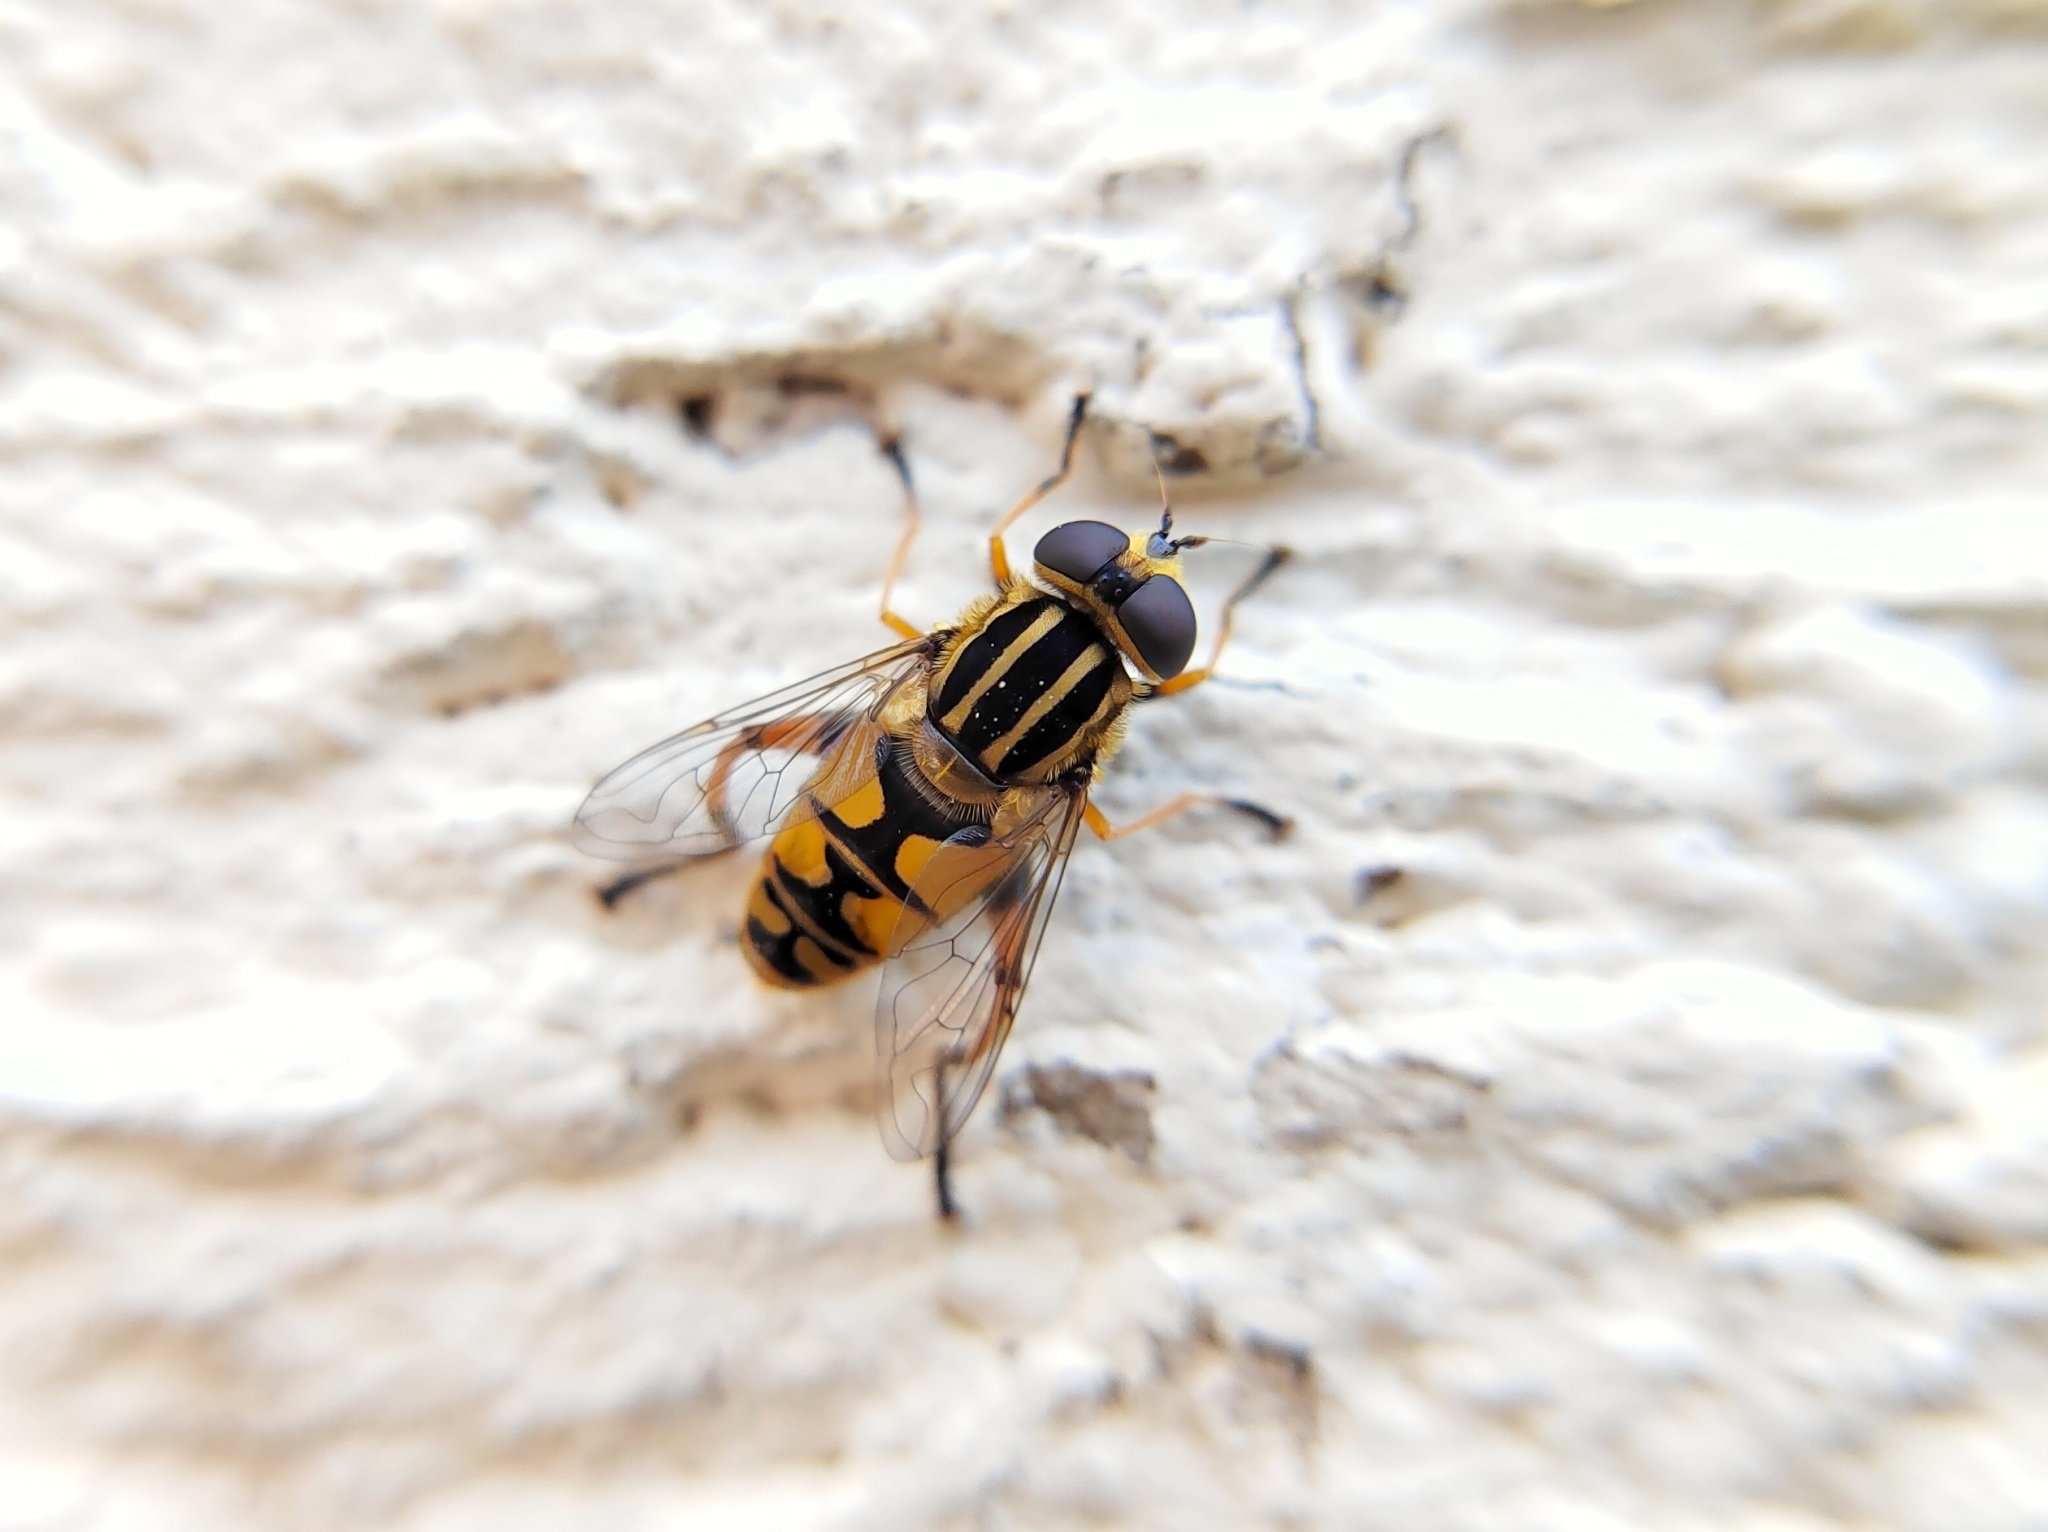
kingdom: Animalia
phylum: Arthropoda
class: Insecta
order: Diptera
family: Syrphidae
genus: Helophilus
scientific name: Helophilus pendulus
